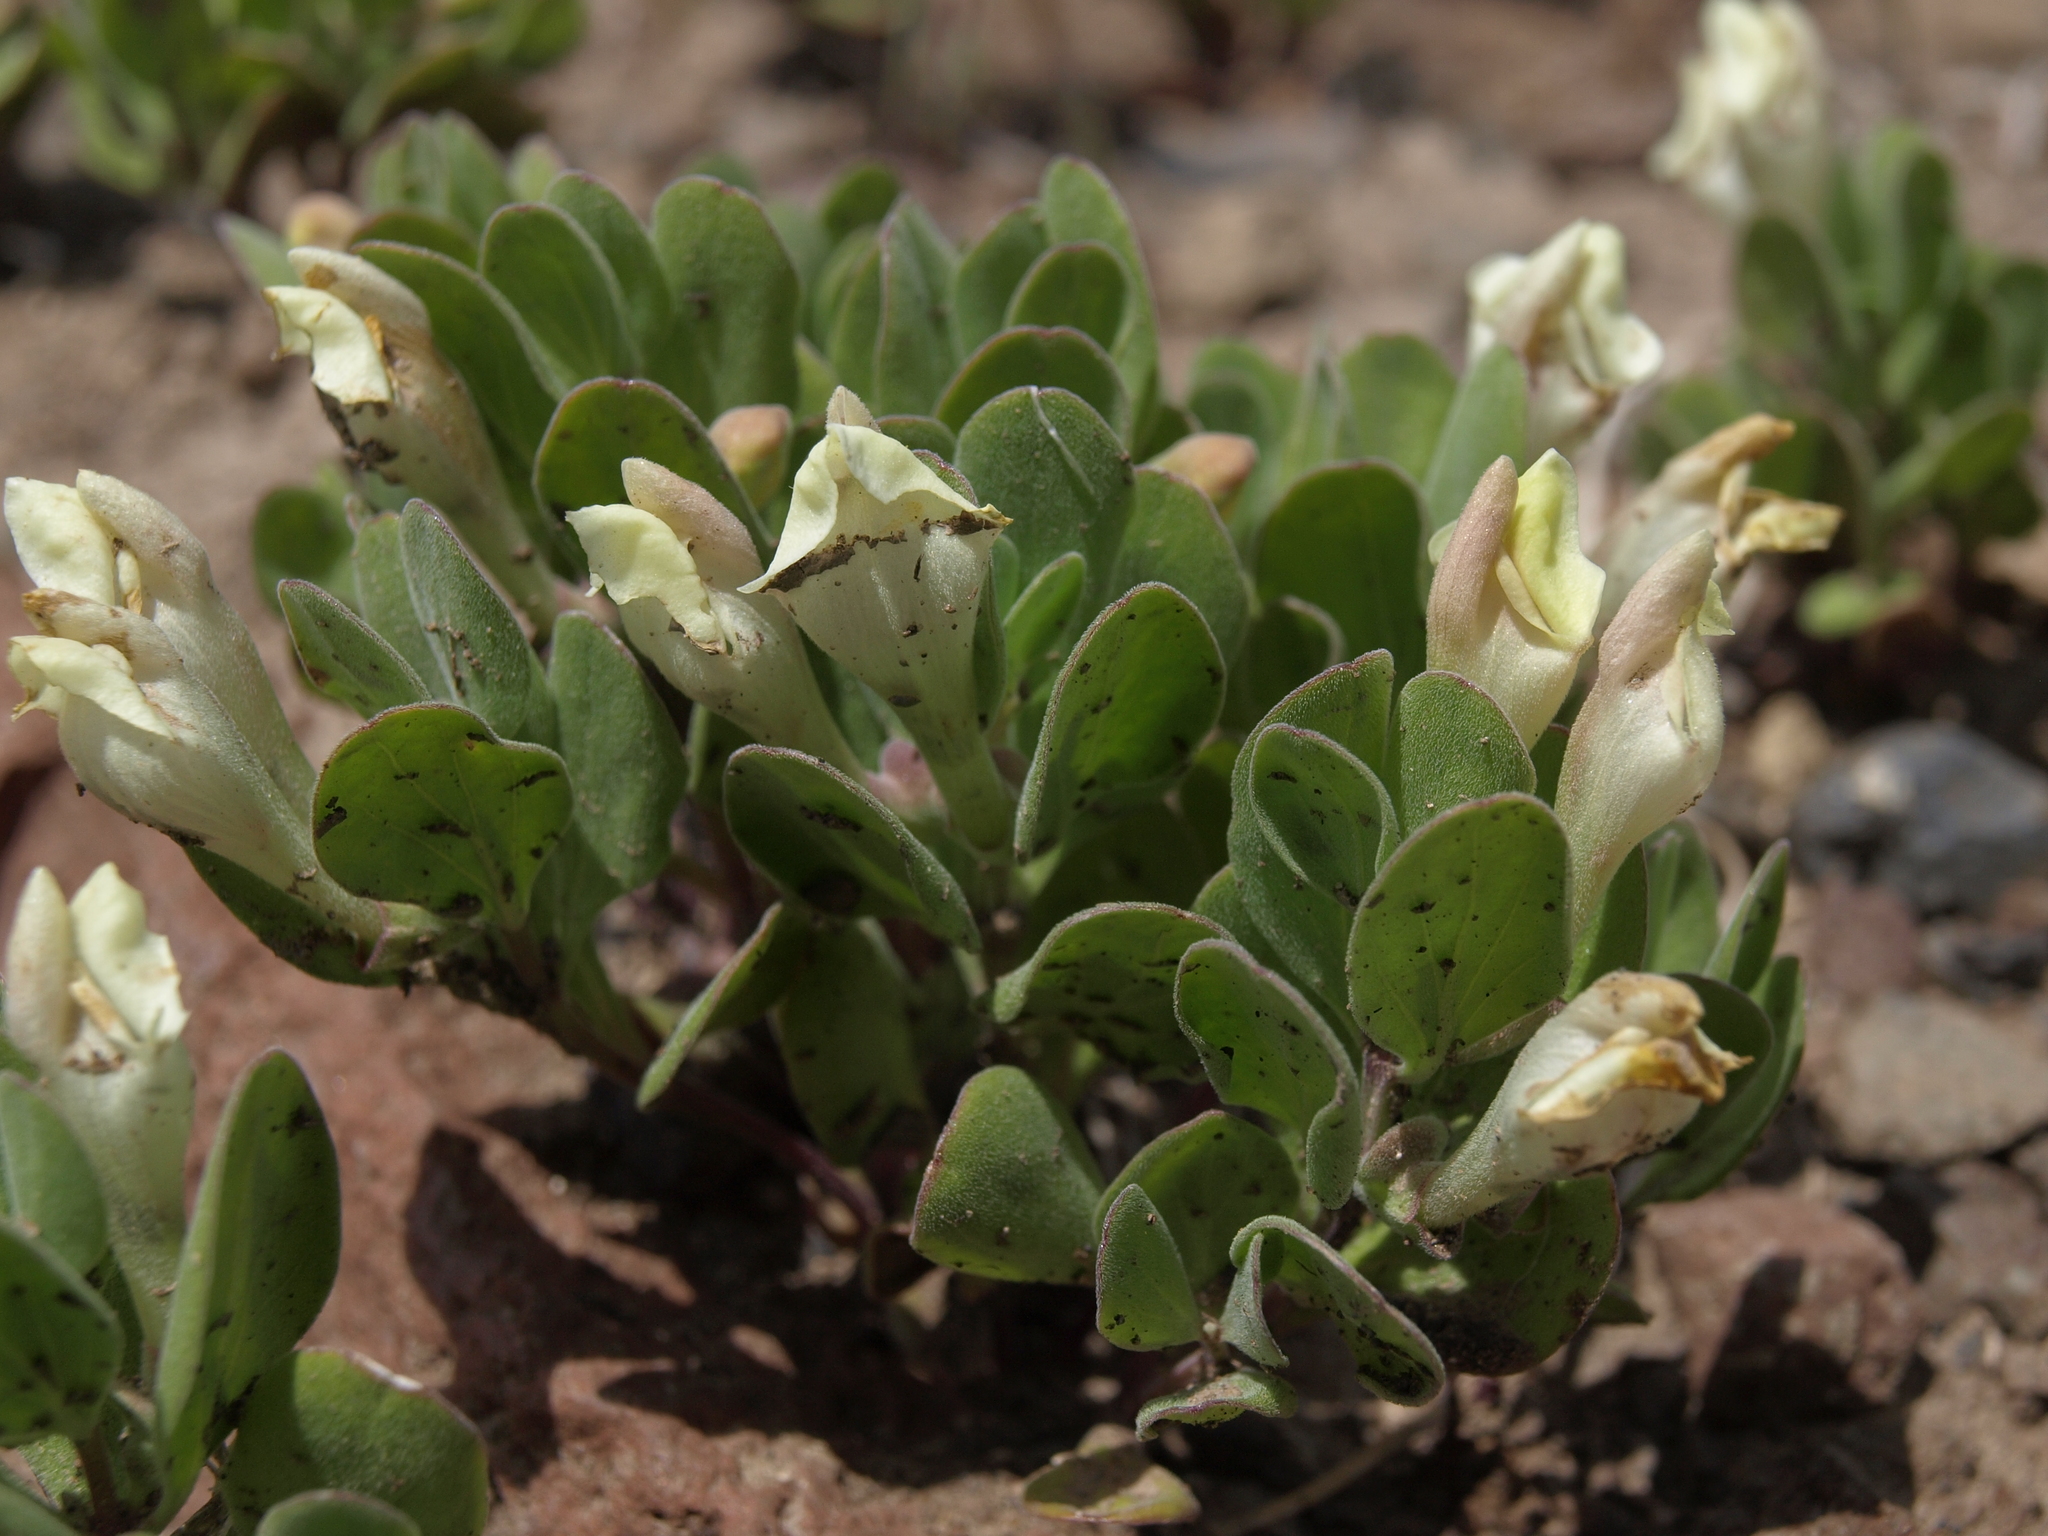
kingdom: Plantae
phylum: Tracheophyta
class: Magnoliopsida
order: Lamiales
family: Lamiaceae
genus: Scutellaria
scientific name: Scutellaria nana
